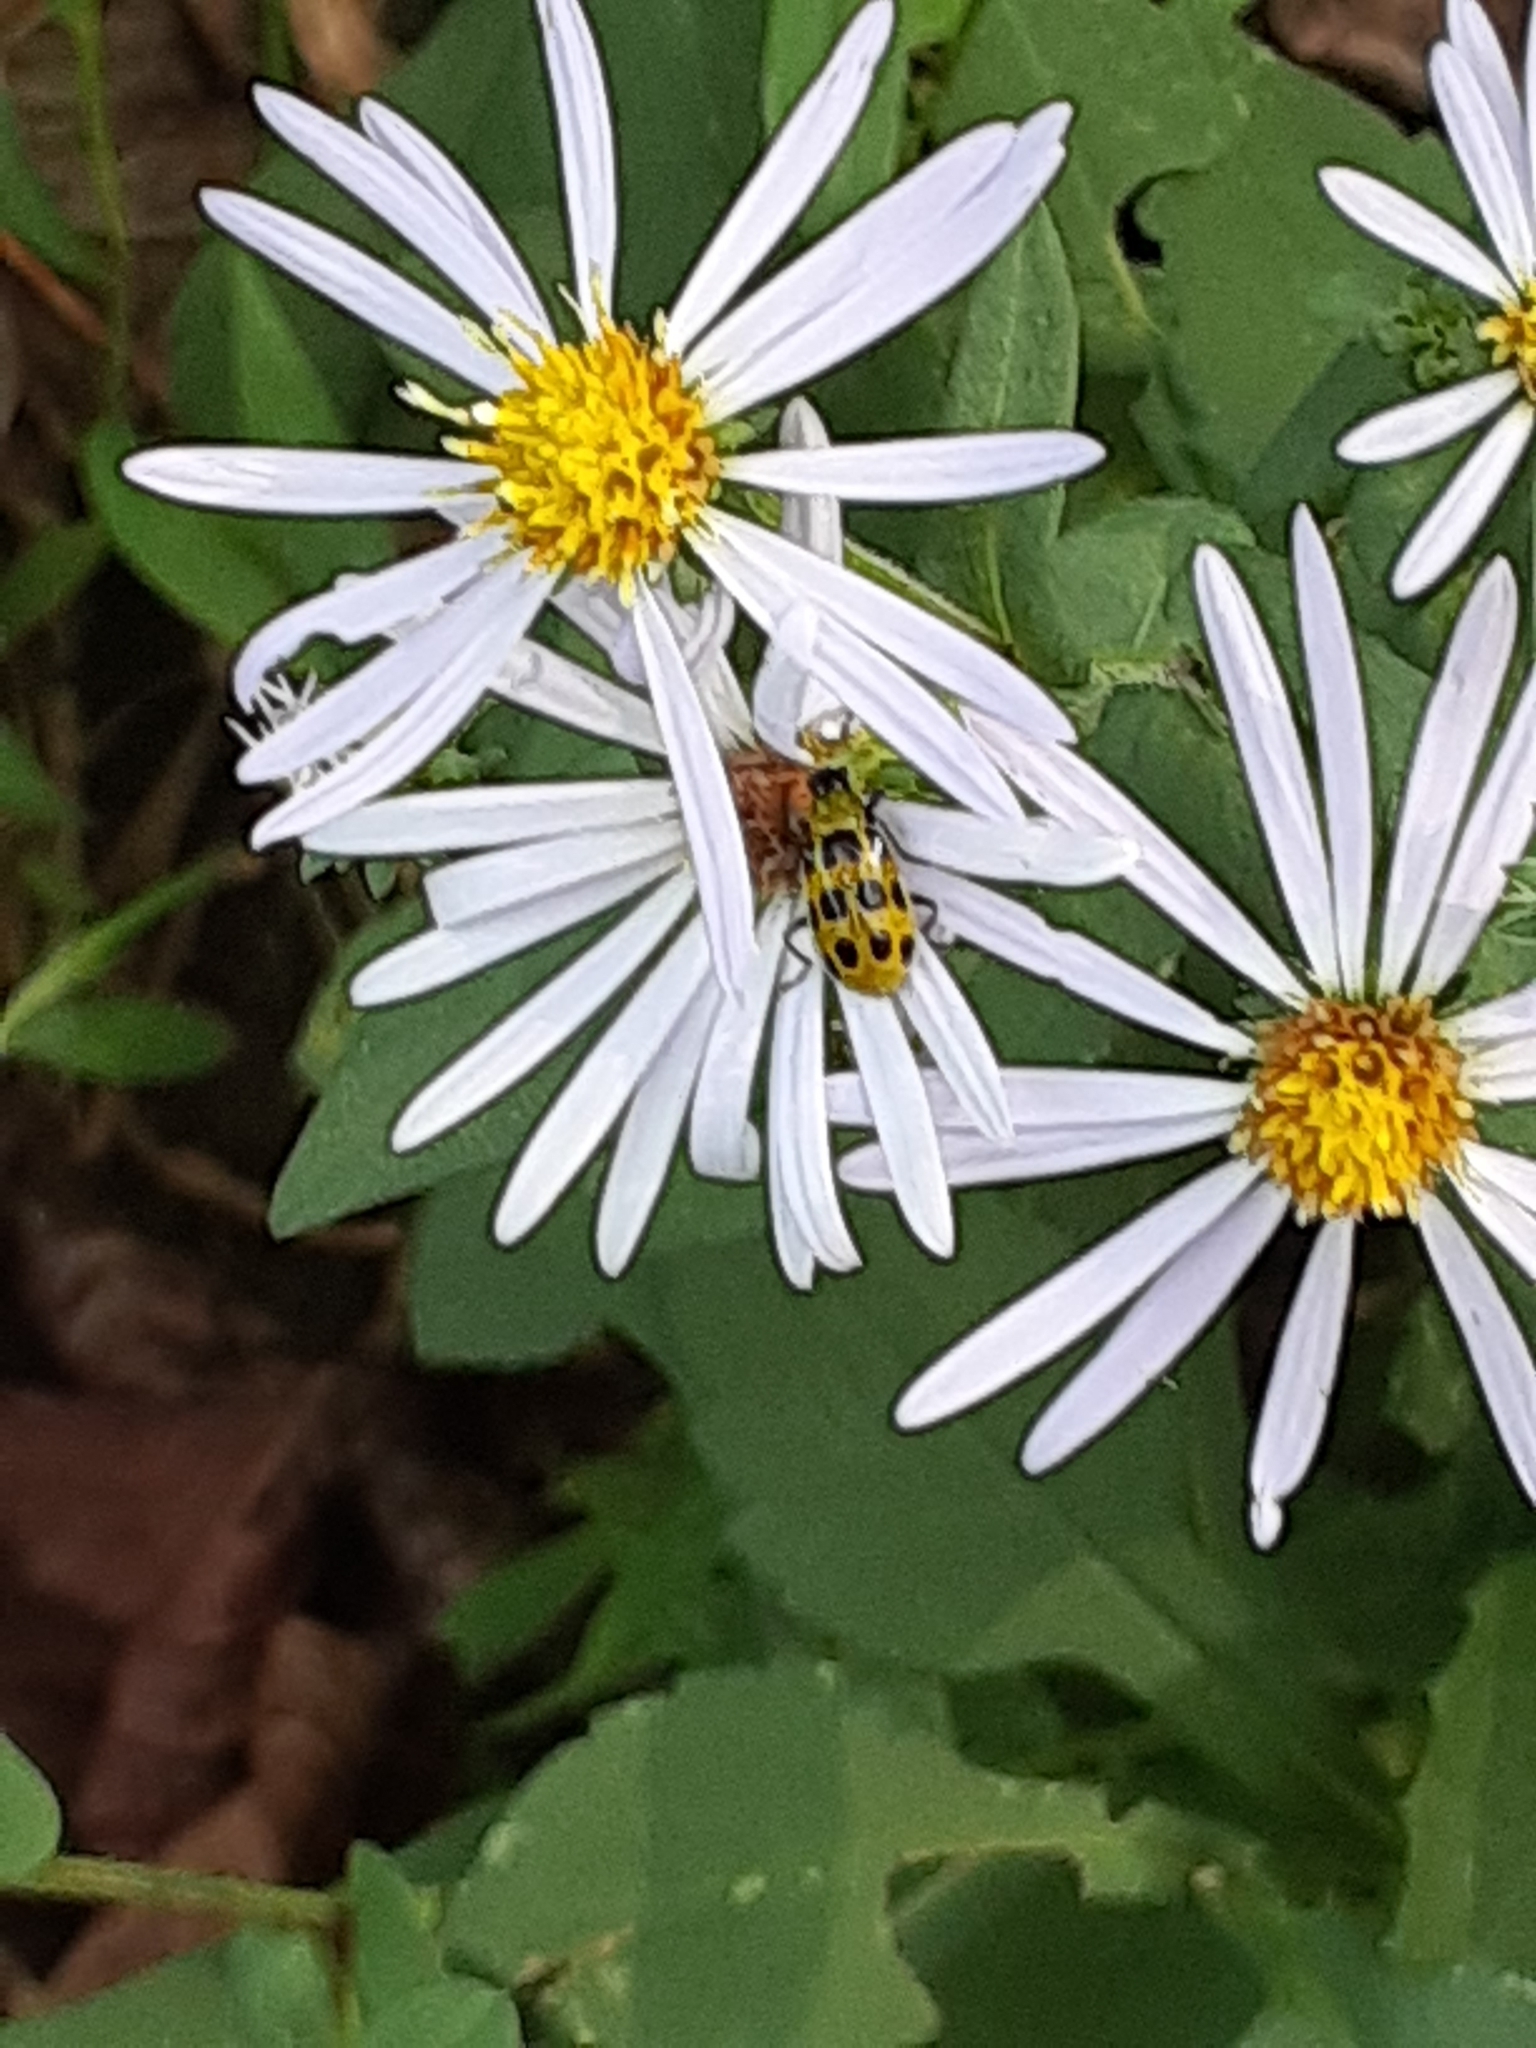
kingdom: Animalia
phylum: Arthropoda
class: Insecta
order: Coleoptera
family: Chrysomelidae
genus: Diabrotica
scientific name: Diabrotica undecimpunctata
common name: Spotted cucumber beetle
